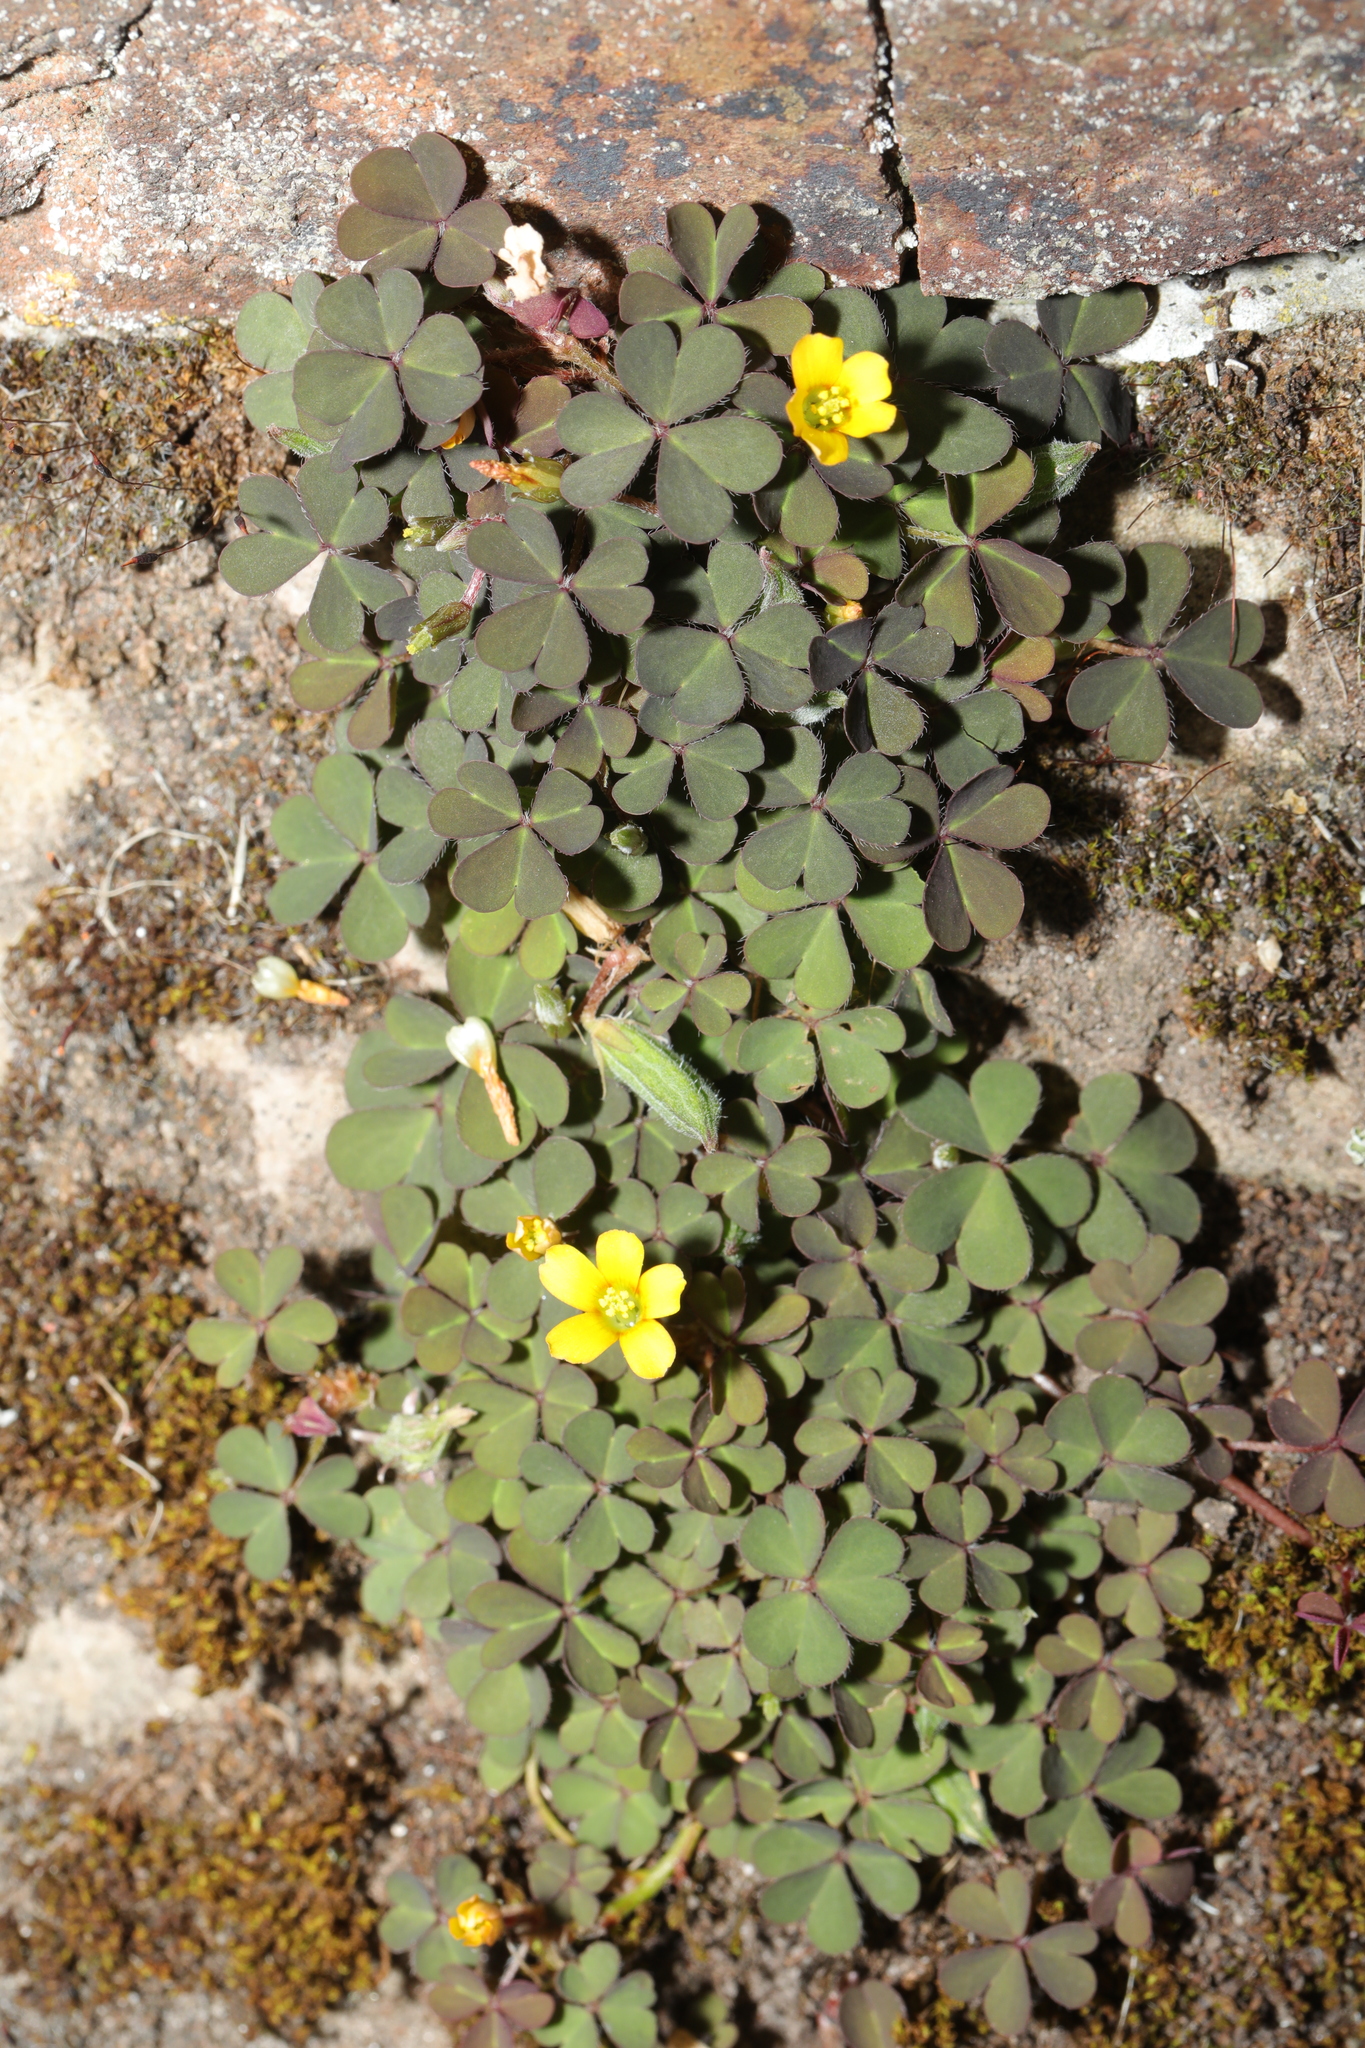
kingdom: Plantae
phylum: Tracheophyta
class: Magnoliopsida
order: Oxalidales
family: Oxalidaceae
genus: Oxalis
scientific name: Oxalis corniculata
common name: Procumbent yellow-sorrel
